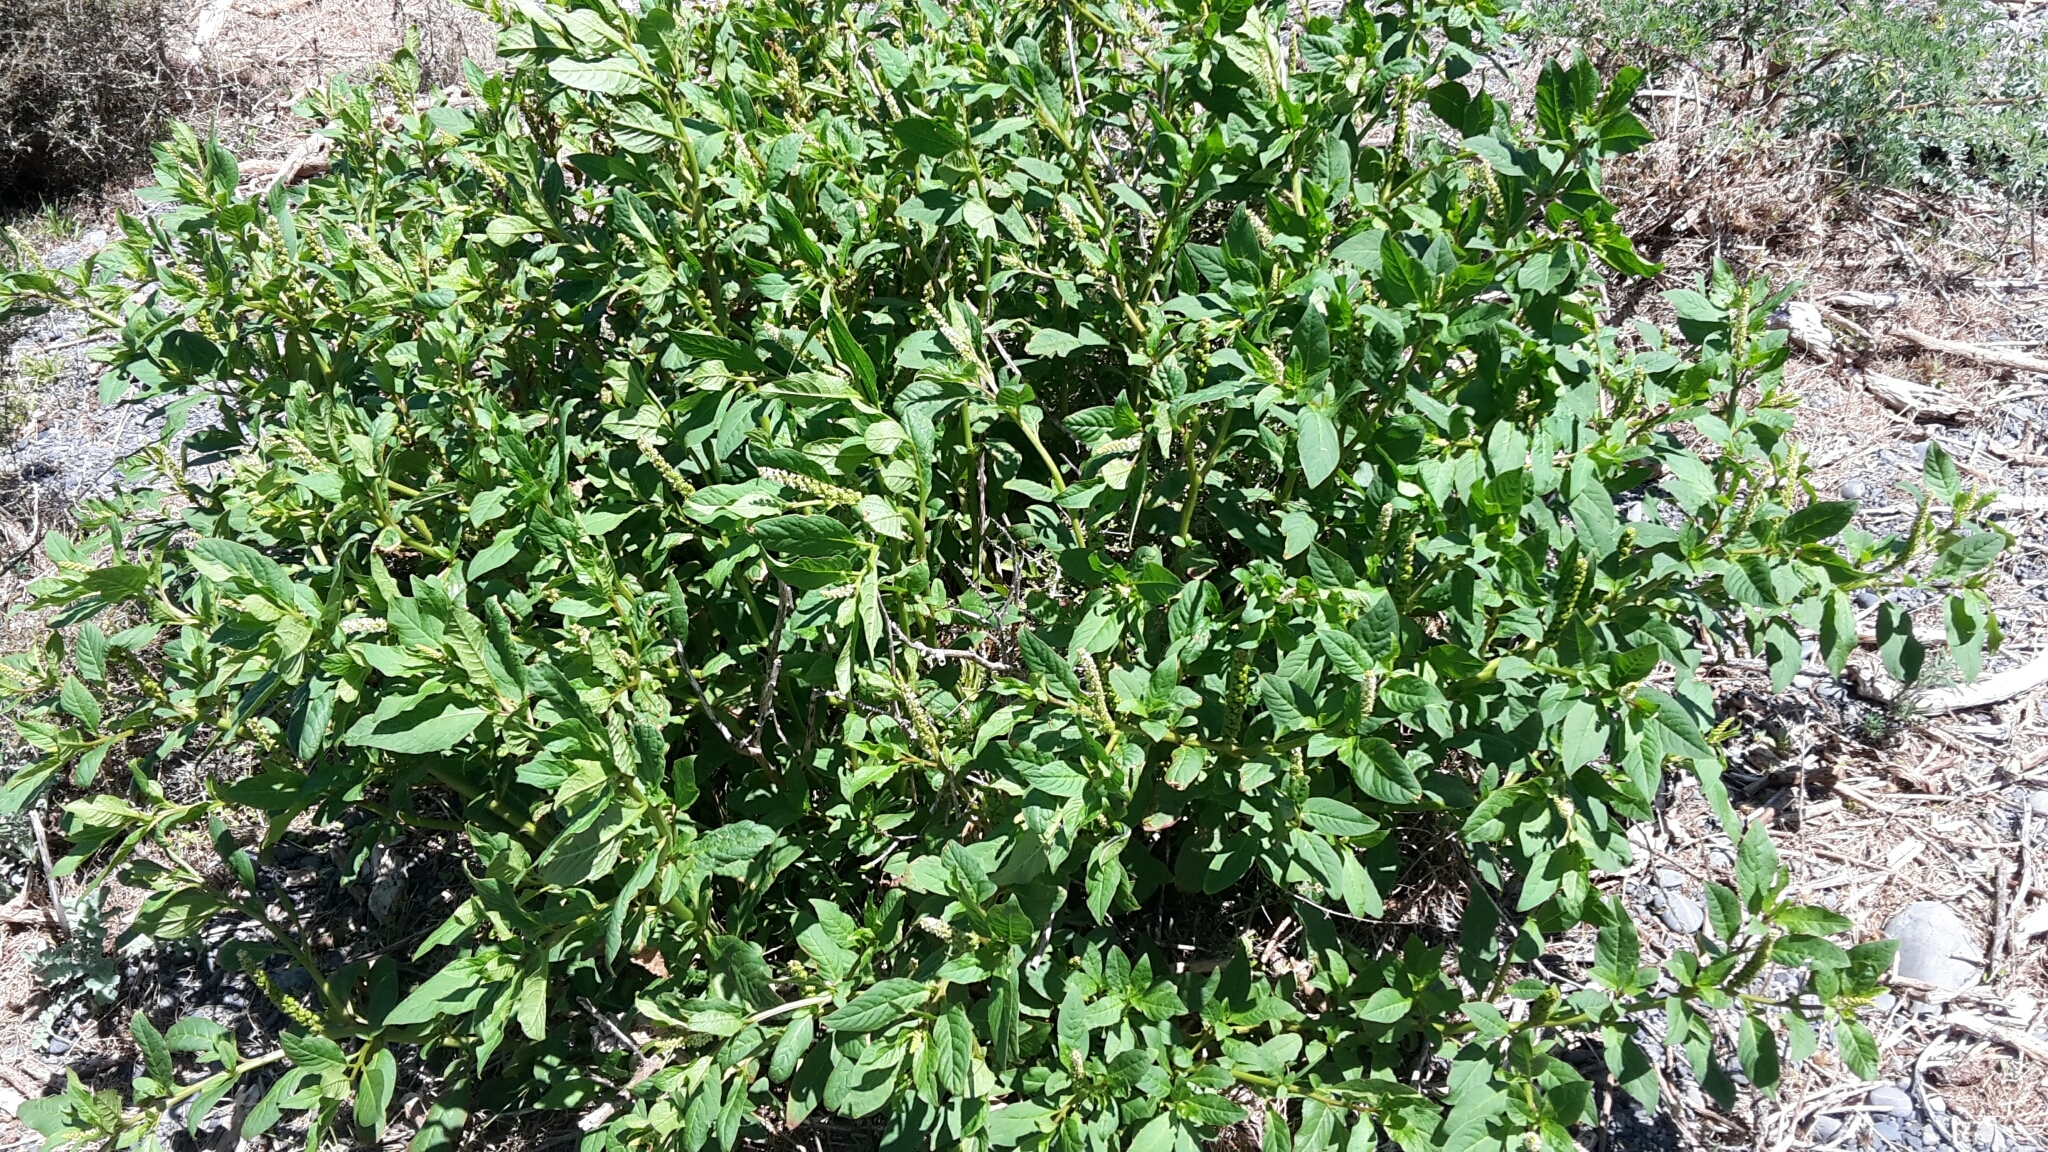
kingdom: Plantae
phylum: Tracheophyta
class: Magnoliopsida
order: Caryophyllales
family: Phytolaccaceae
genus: Phytolacca
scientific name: Phytolacca icosandra
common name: Button pokeweed
